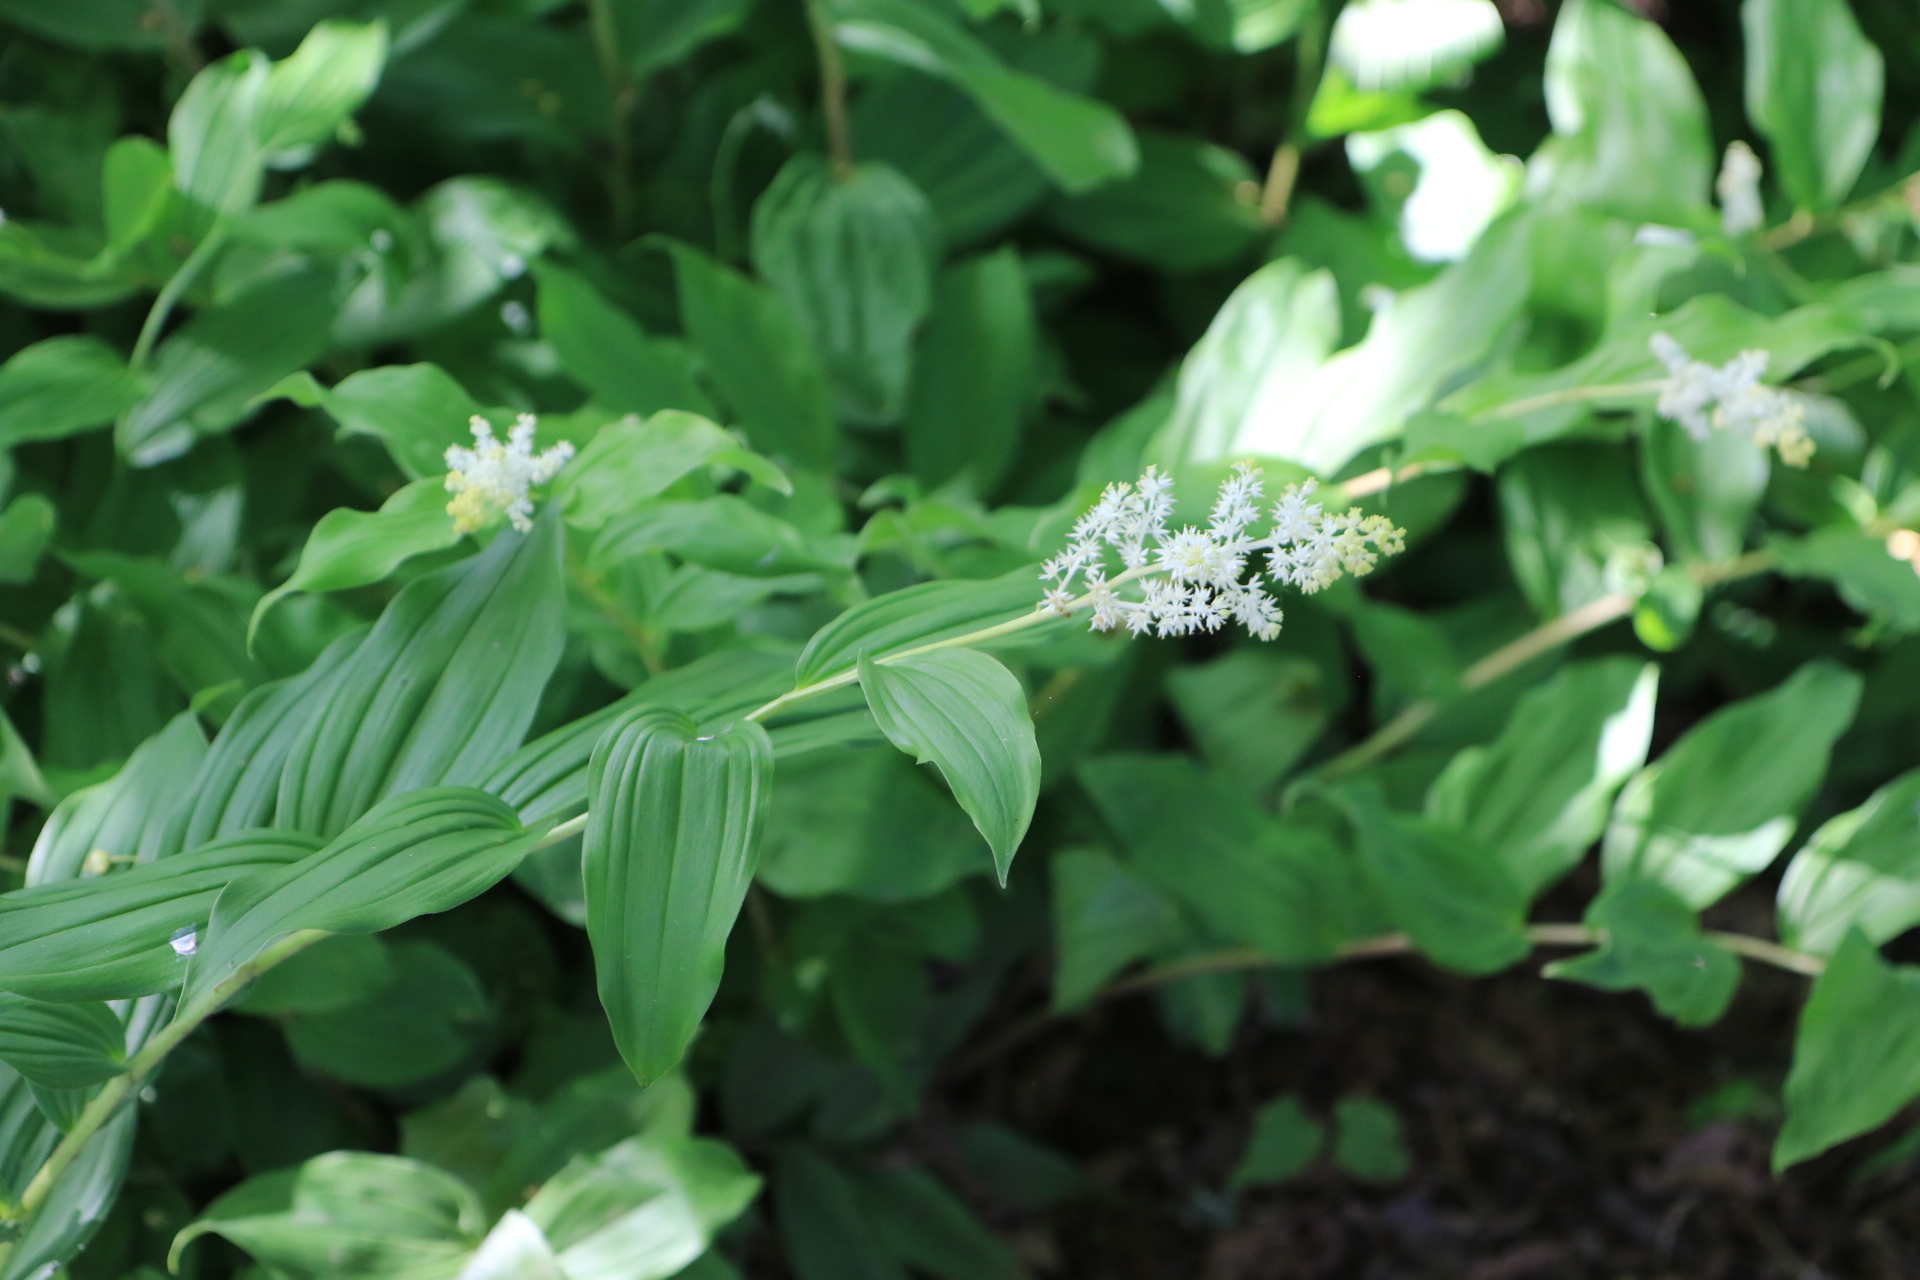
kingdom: Plantae
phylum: Tracheophyta
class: Liliopsida
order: Asparagales
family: Asparagaceae
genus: Maianthemum
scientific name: Maianthemum racemosum
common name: False spikenard
